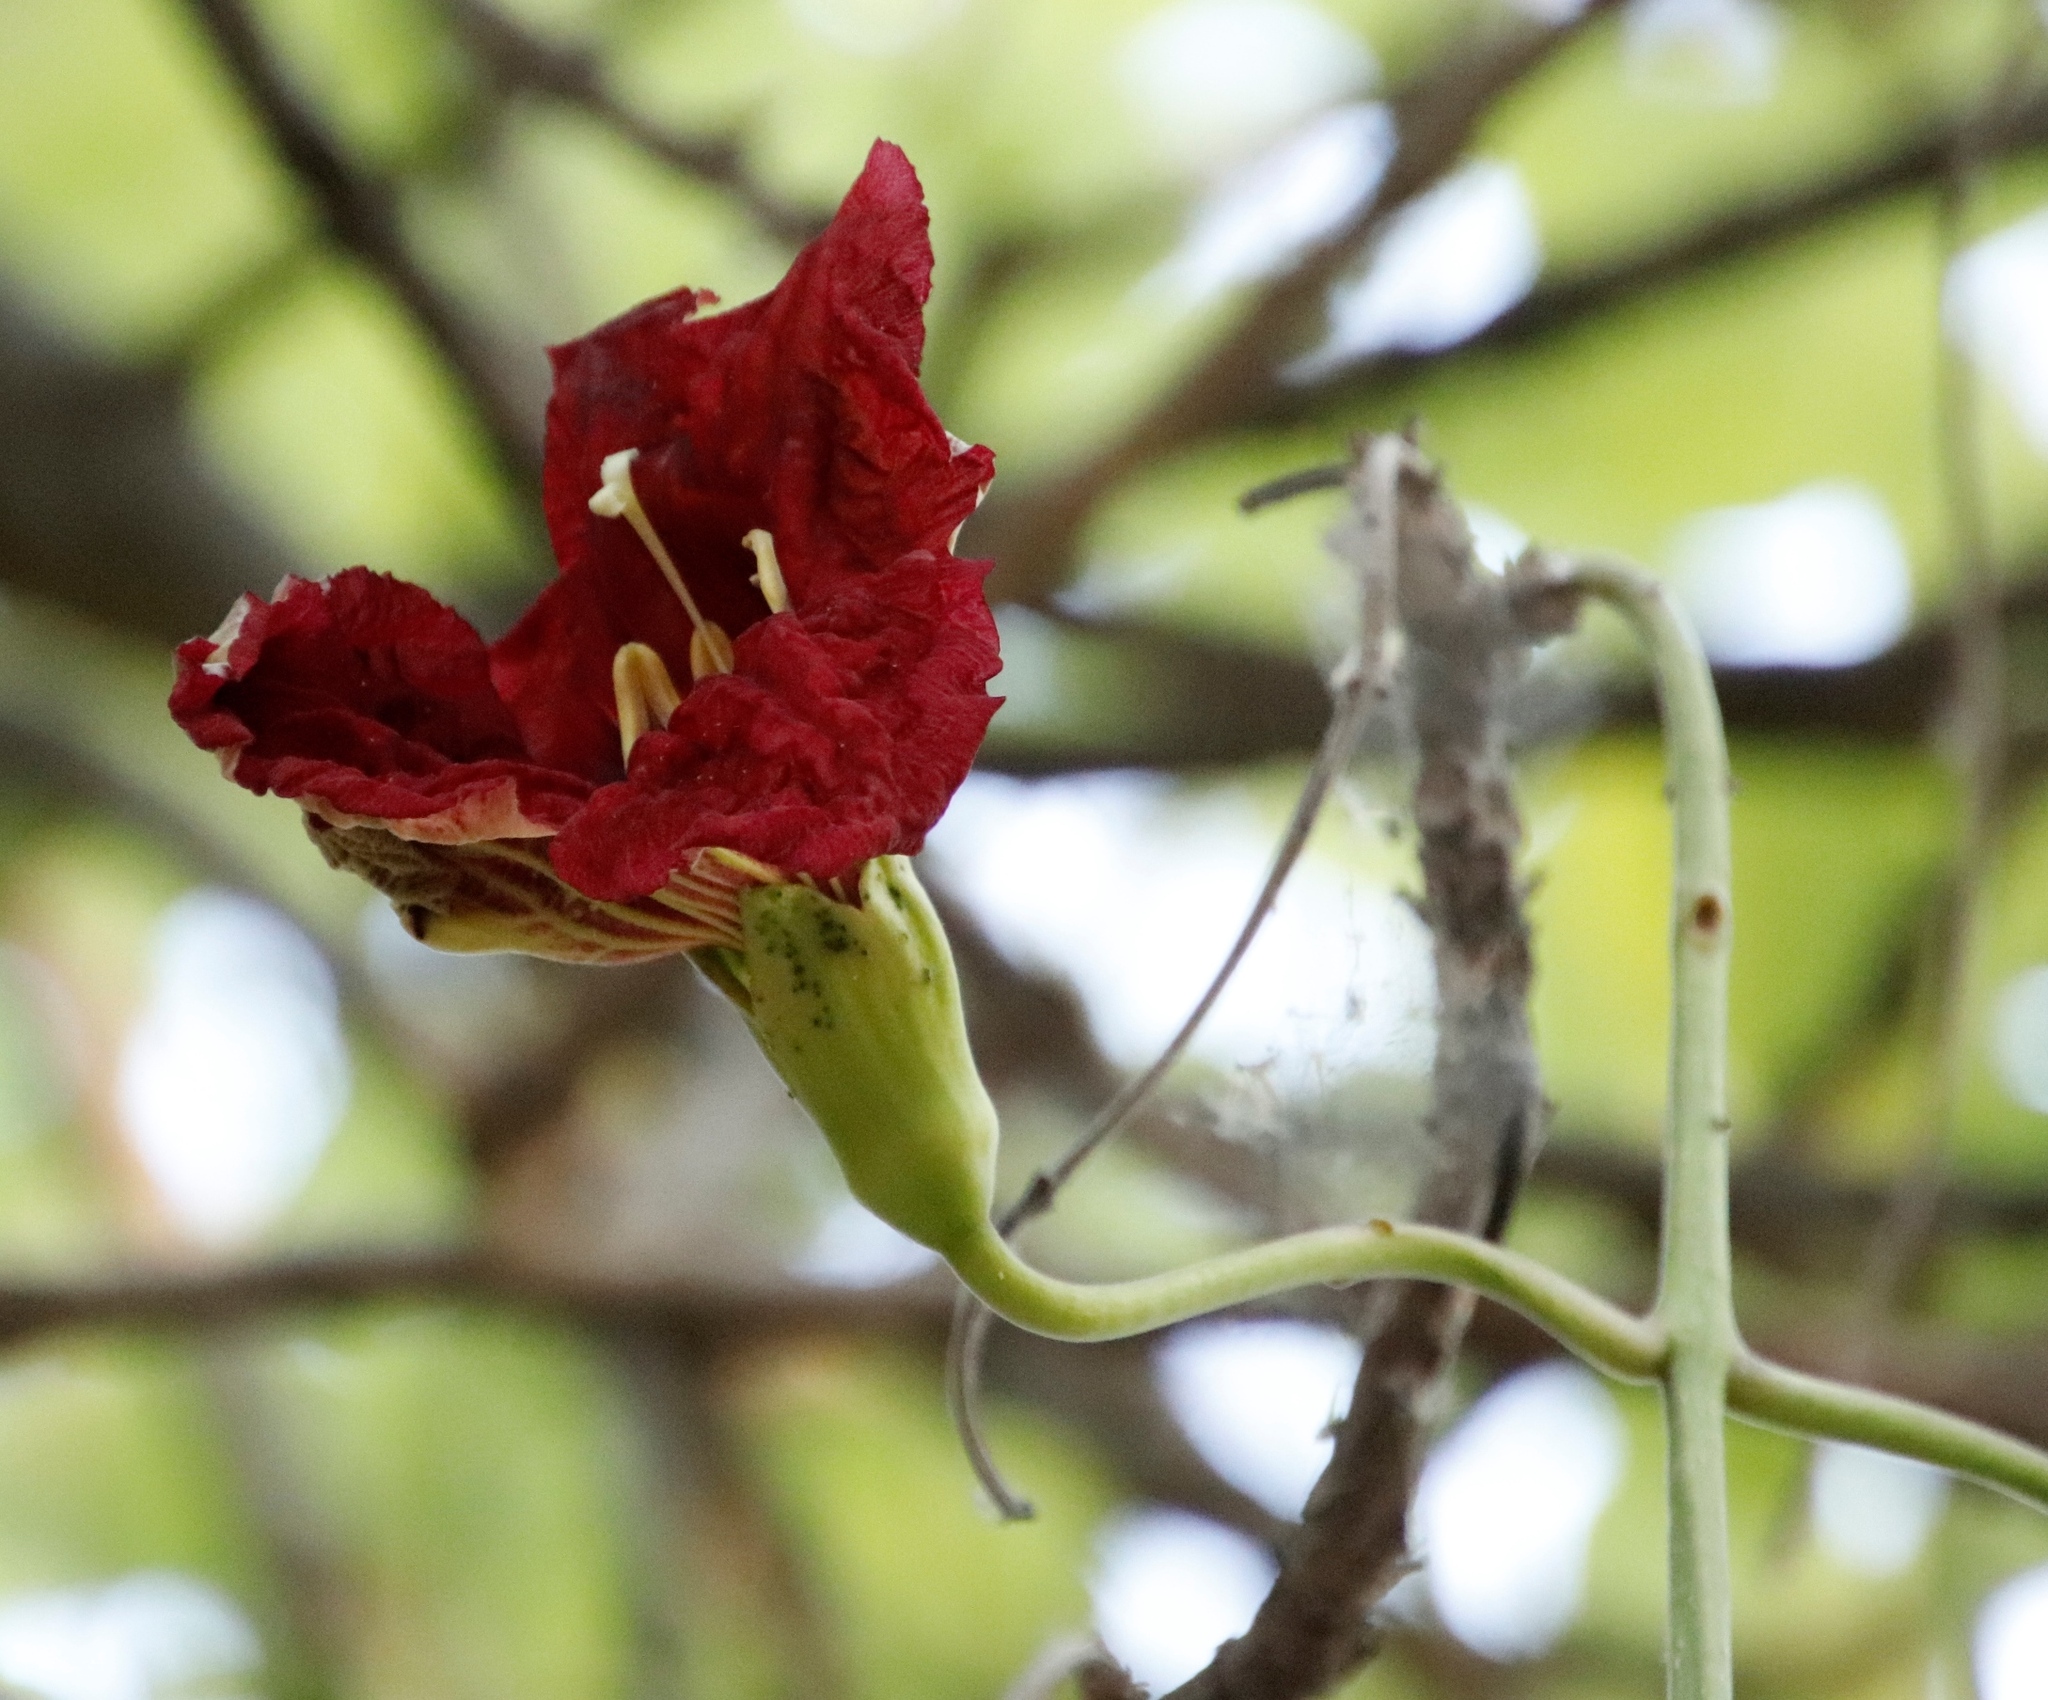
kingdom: Plantae
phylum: Tracheophyta
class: Magnoliopsida
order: Lamiales
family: Bignoniaceae
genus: Kigelia
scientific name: Kigelia africana
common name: Sausage tree
